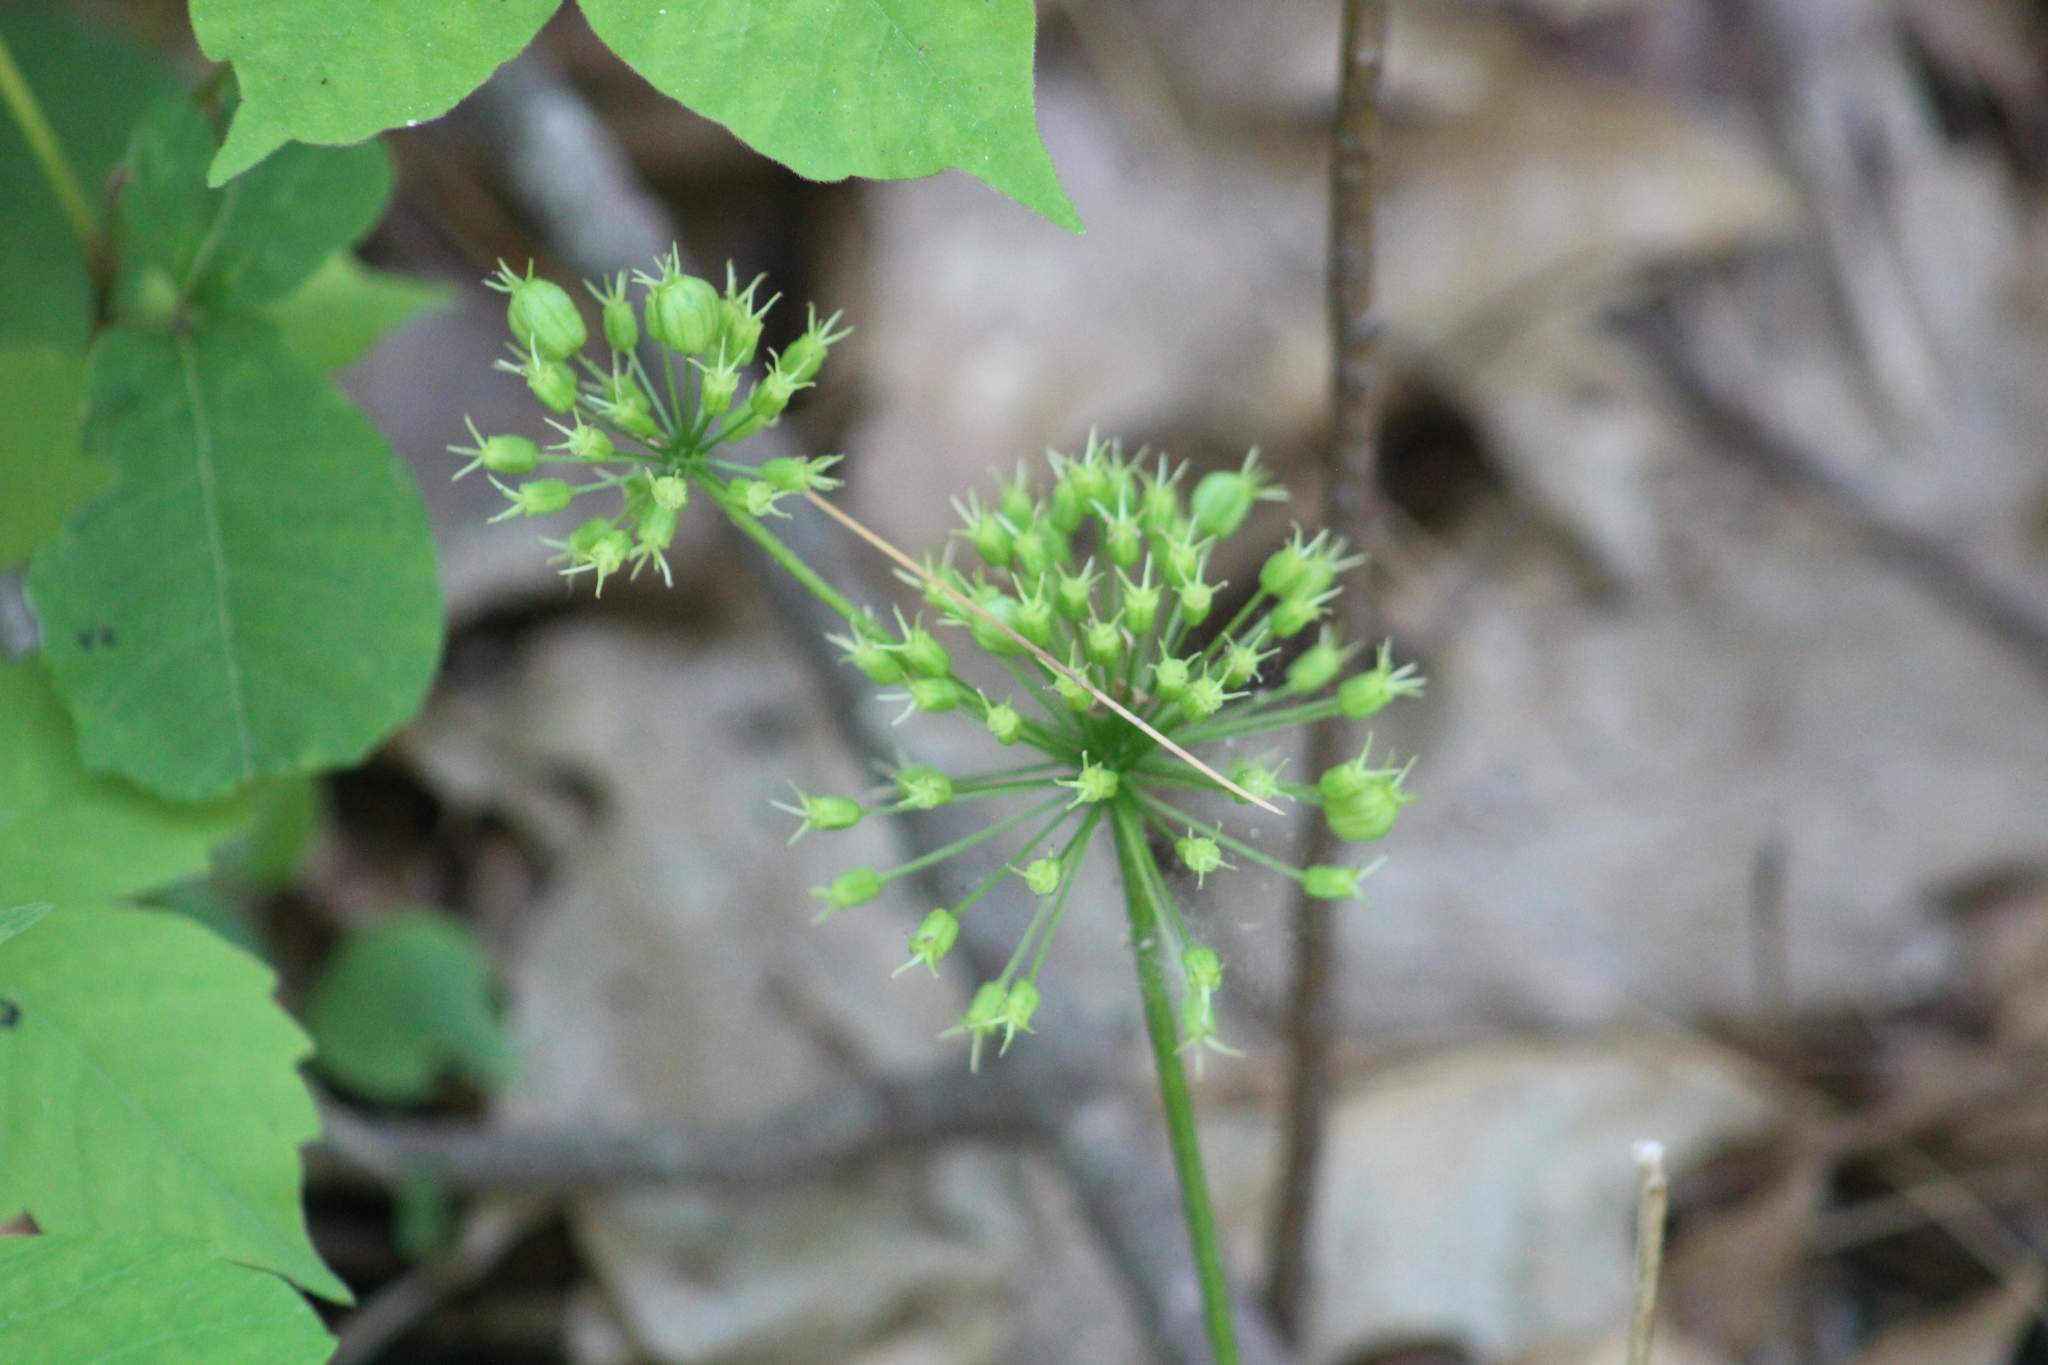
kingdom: Plantae
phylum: Tracheophyta
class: Magnoliopsida
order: Apiales
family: Araliaceae
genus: Aralia
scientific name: Aralia nudicaulis
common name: Wild sarsaparilla
